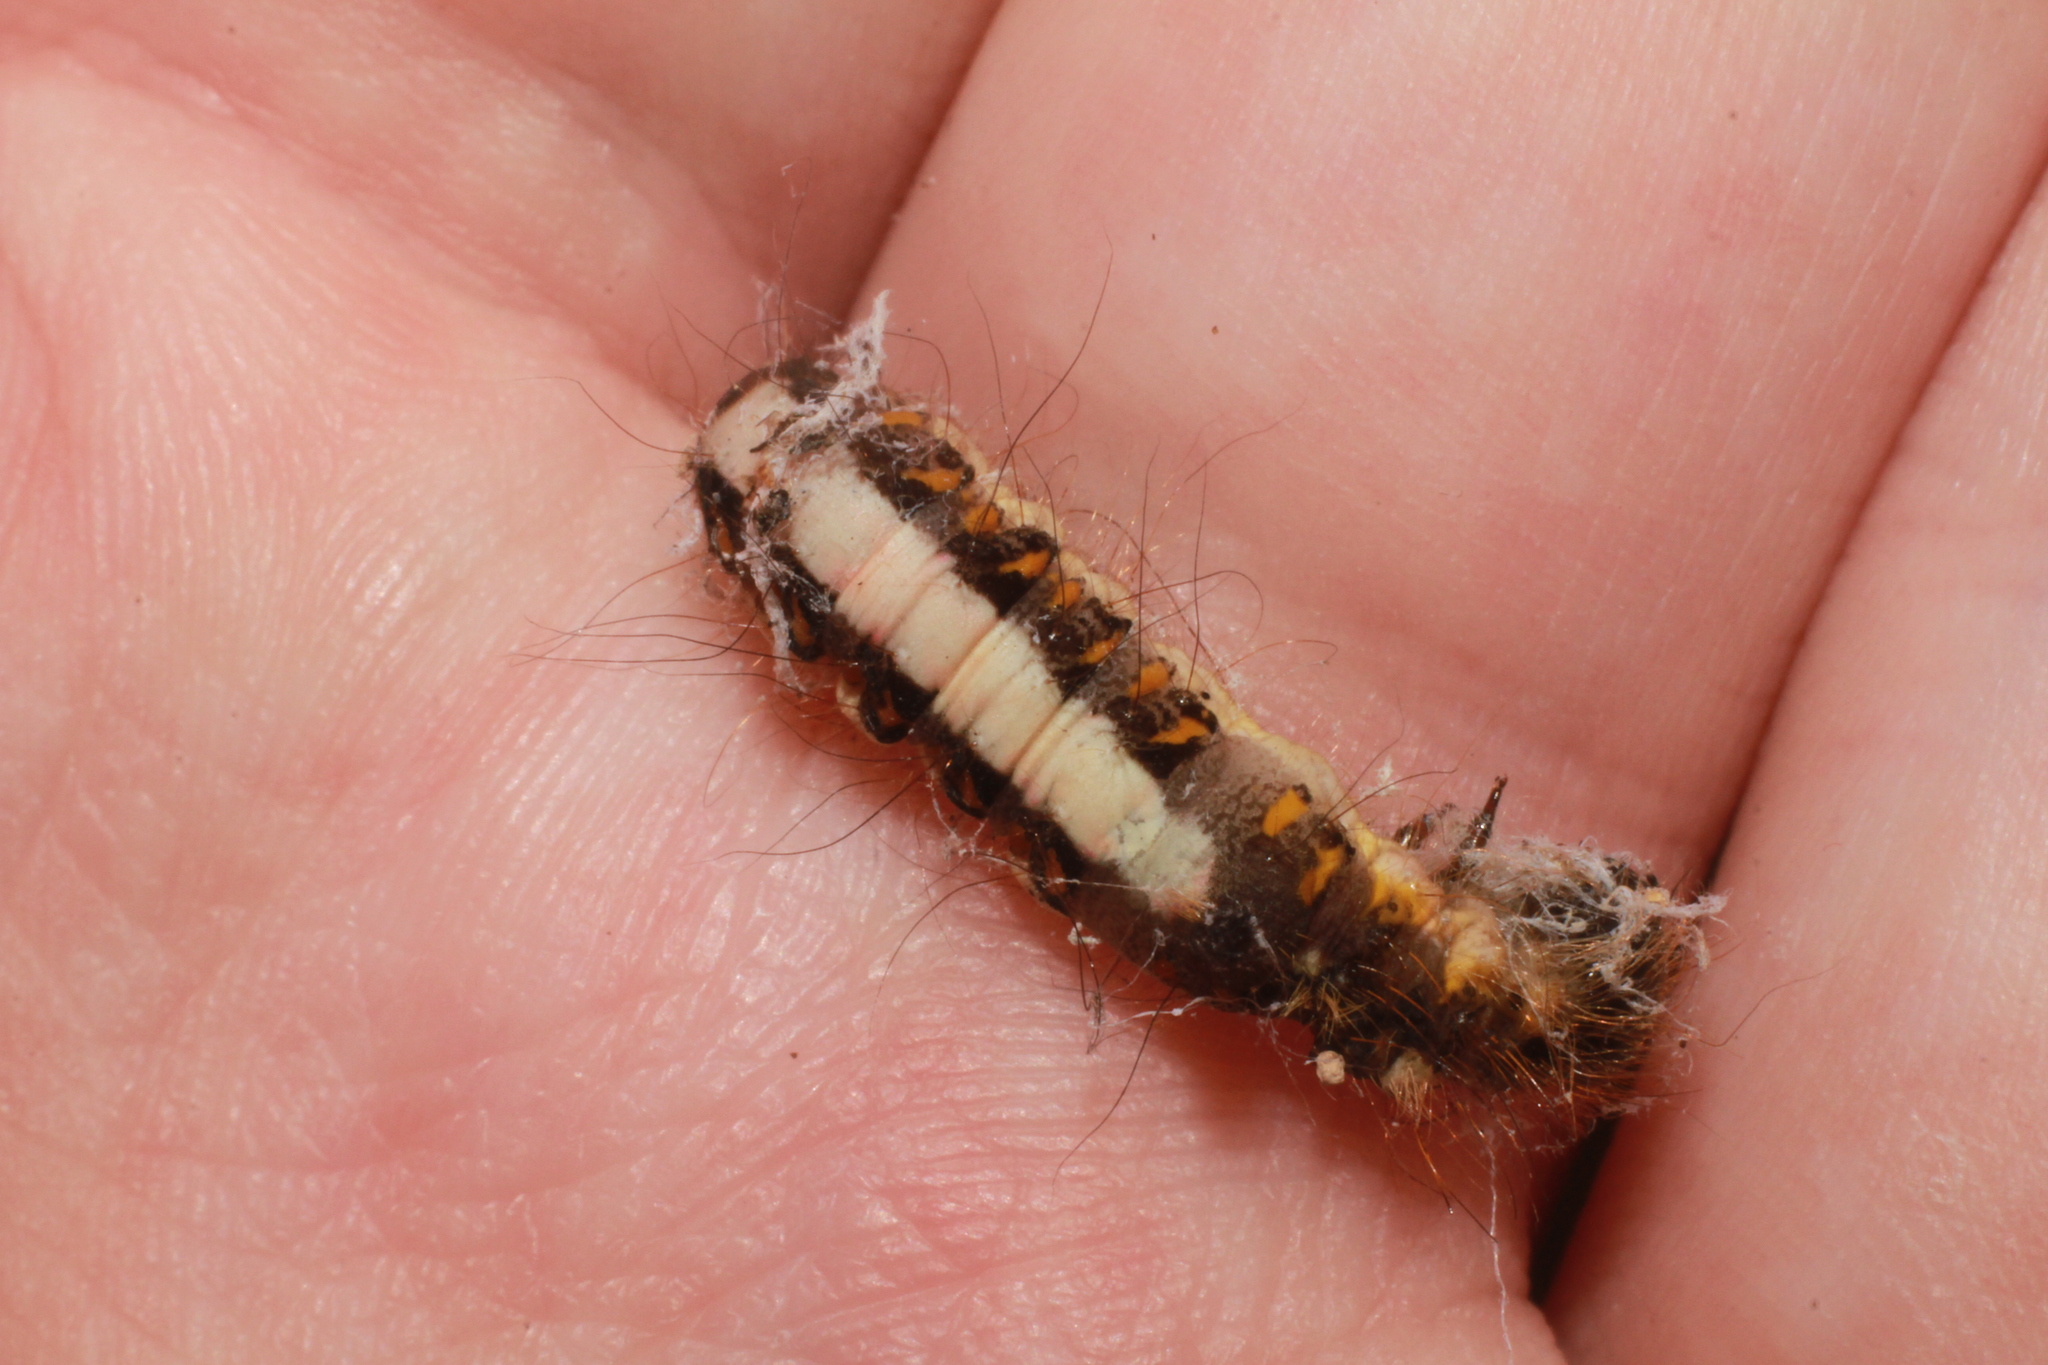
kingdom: Animalia
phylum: Arthropoda
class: Insecta
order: Lepidoptera
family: Noctuidae
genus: Acronicta
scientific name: Acronicta psi
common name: Grey dagger
